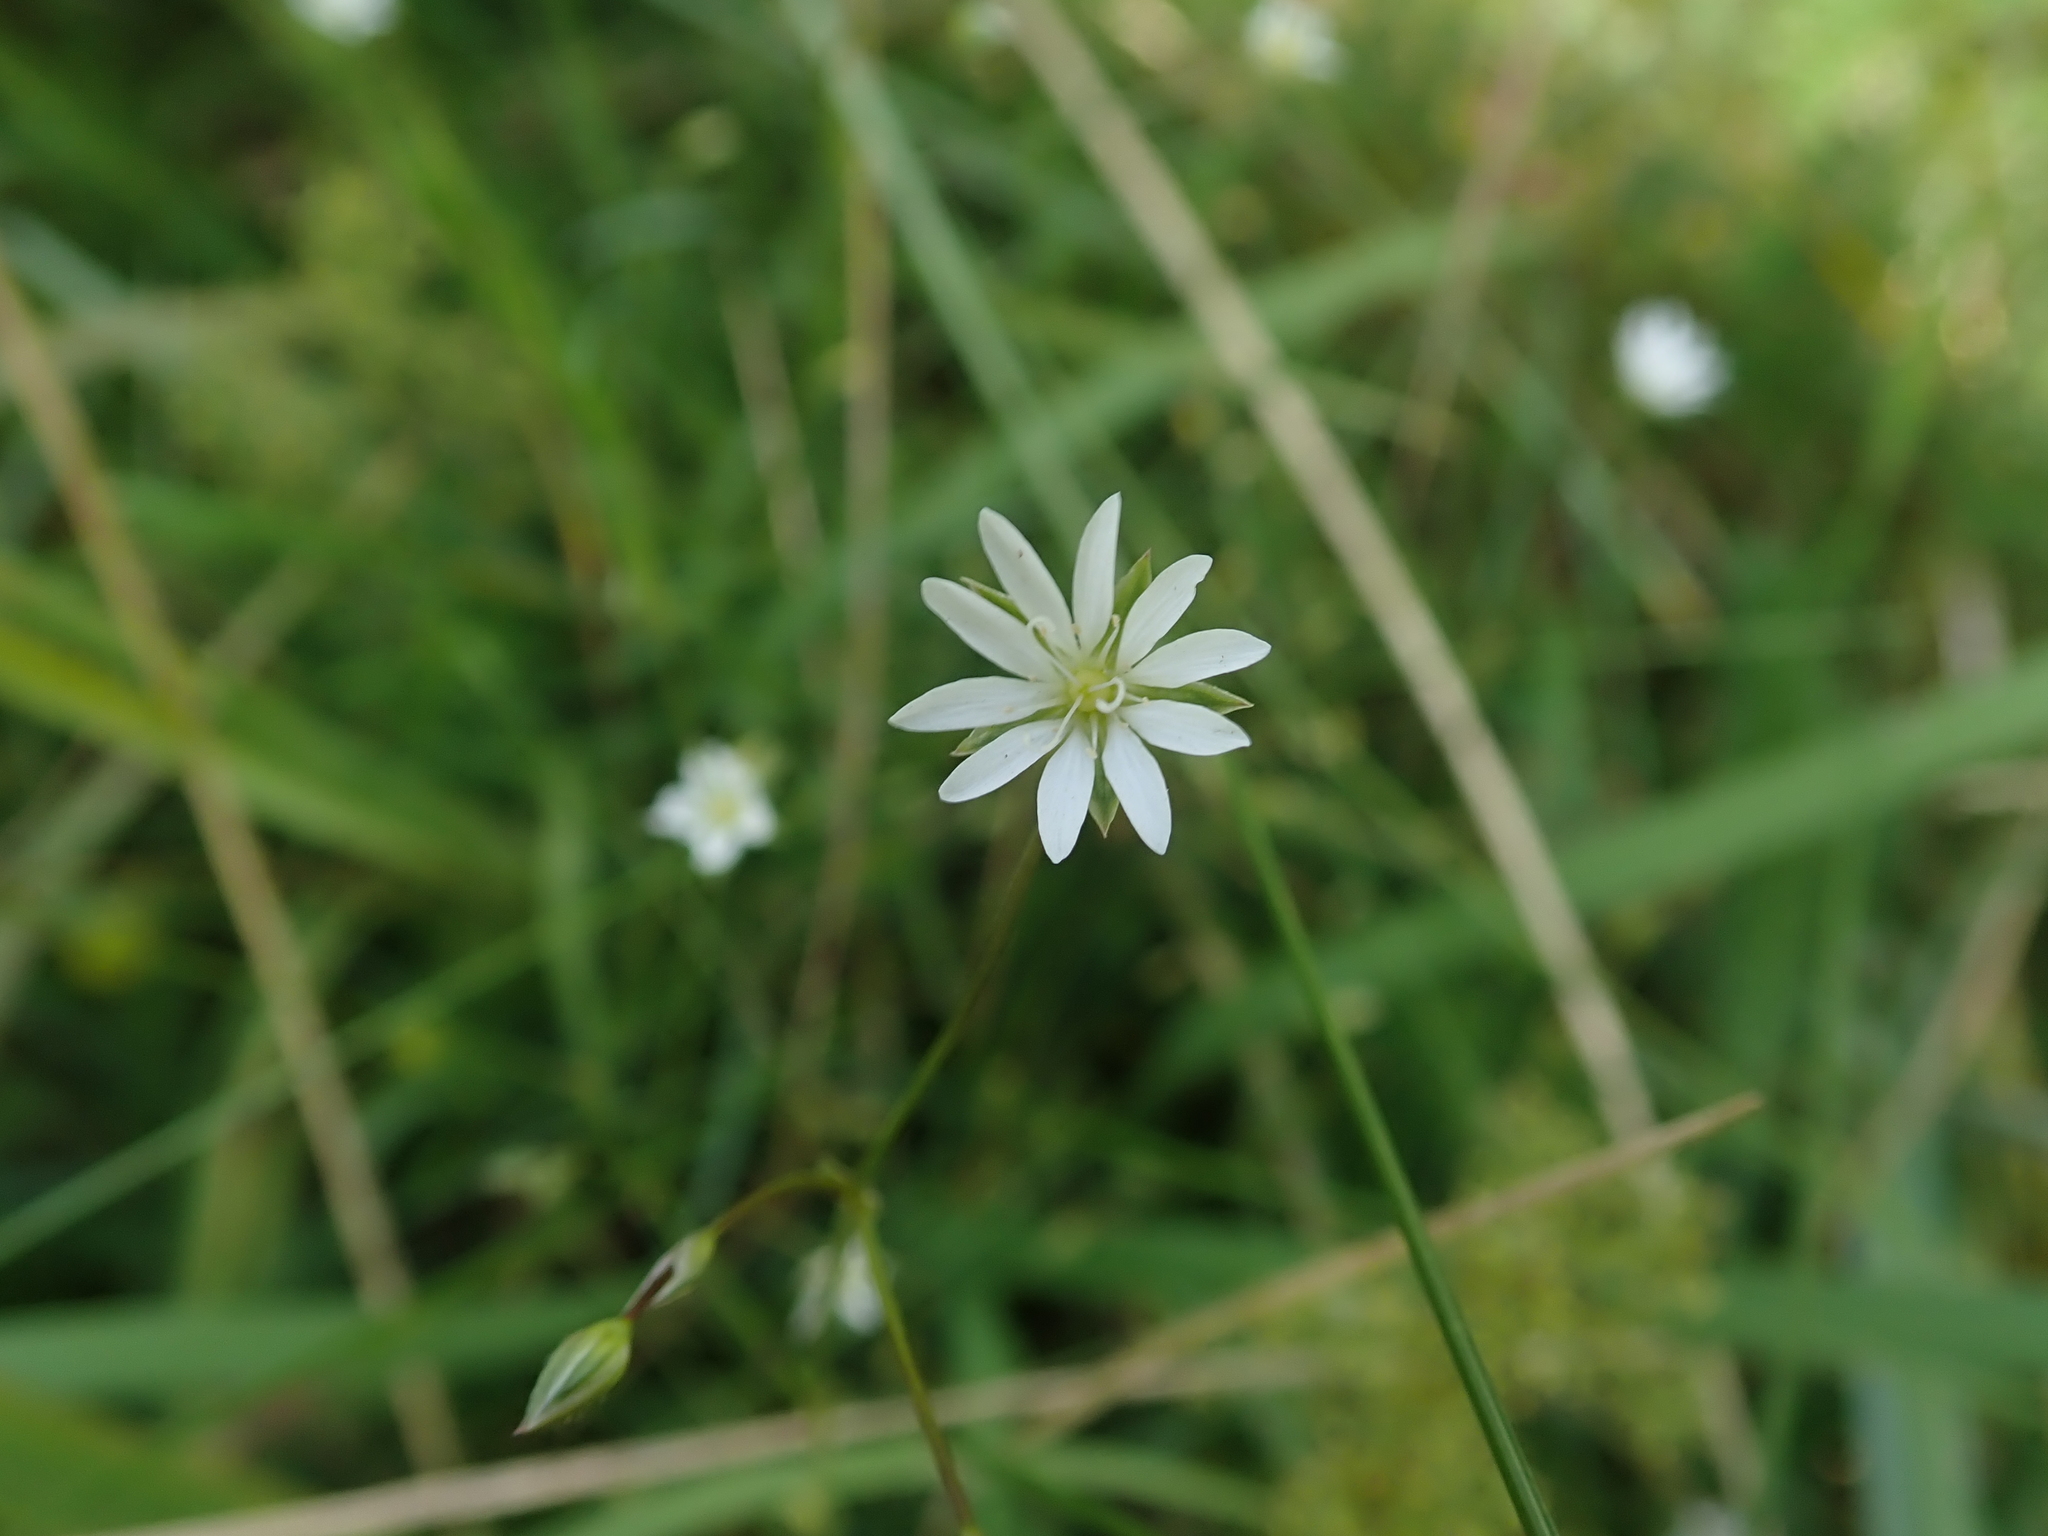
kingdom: Plantae
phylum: Tracheophyta
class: Magnoliopsida
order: Caryophyllales
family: Caryophyllaceae
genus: Stellaria
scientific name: Stellaria graminea
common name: Grass-like starwort
